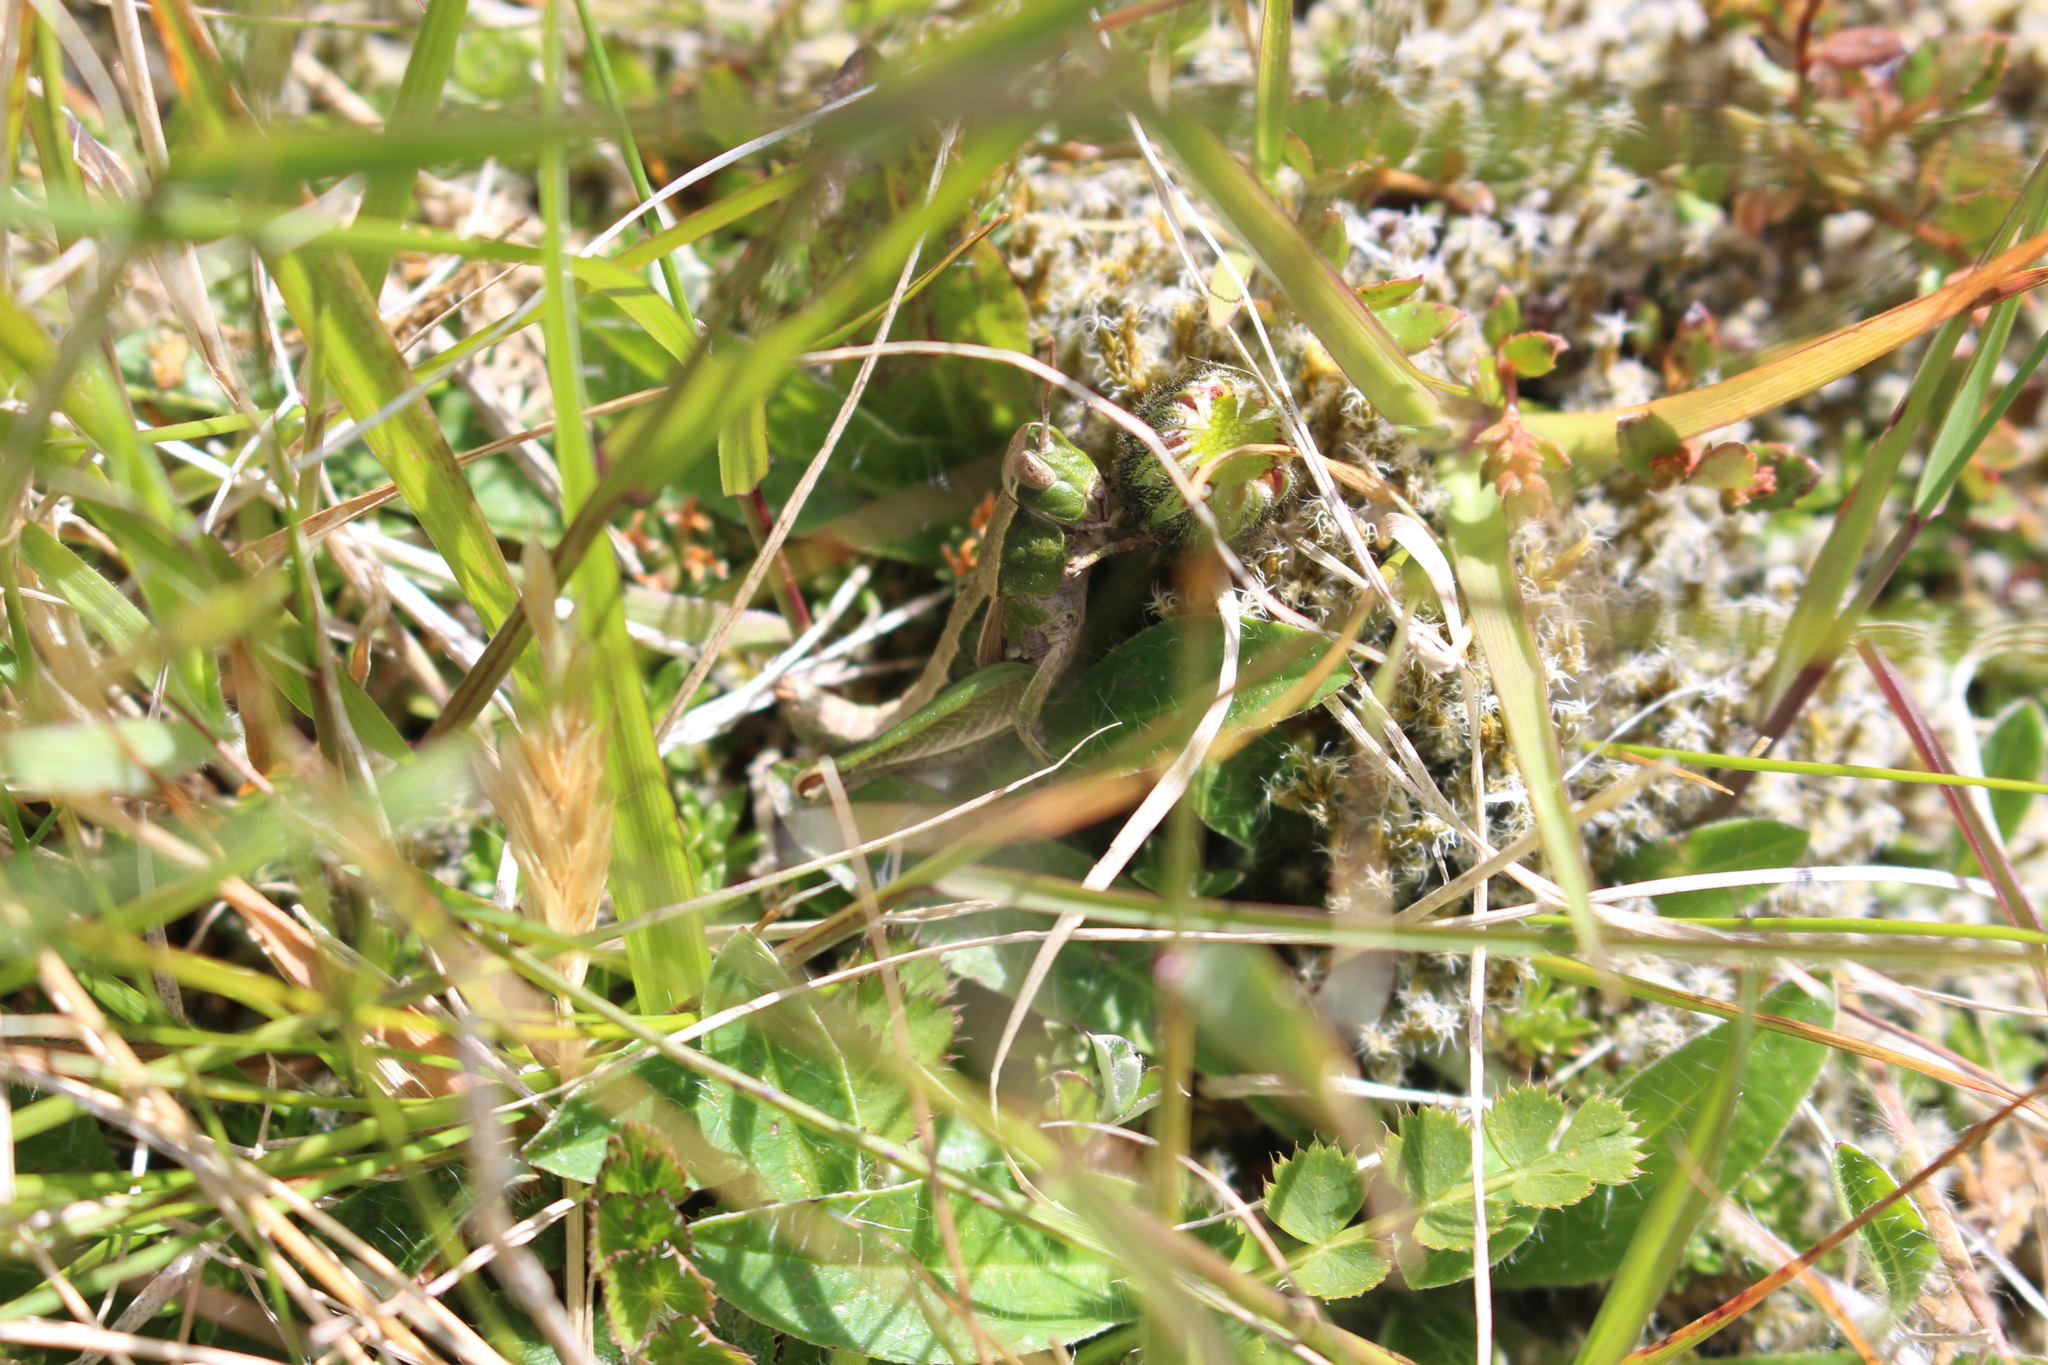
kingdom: Animalia
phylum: Arthropoda
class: Insecta
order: Orthoptera
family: Acrididae
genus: Sigaus
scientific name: Sigaus campestris
